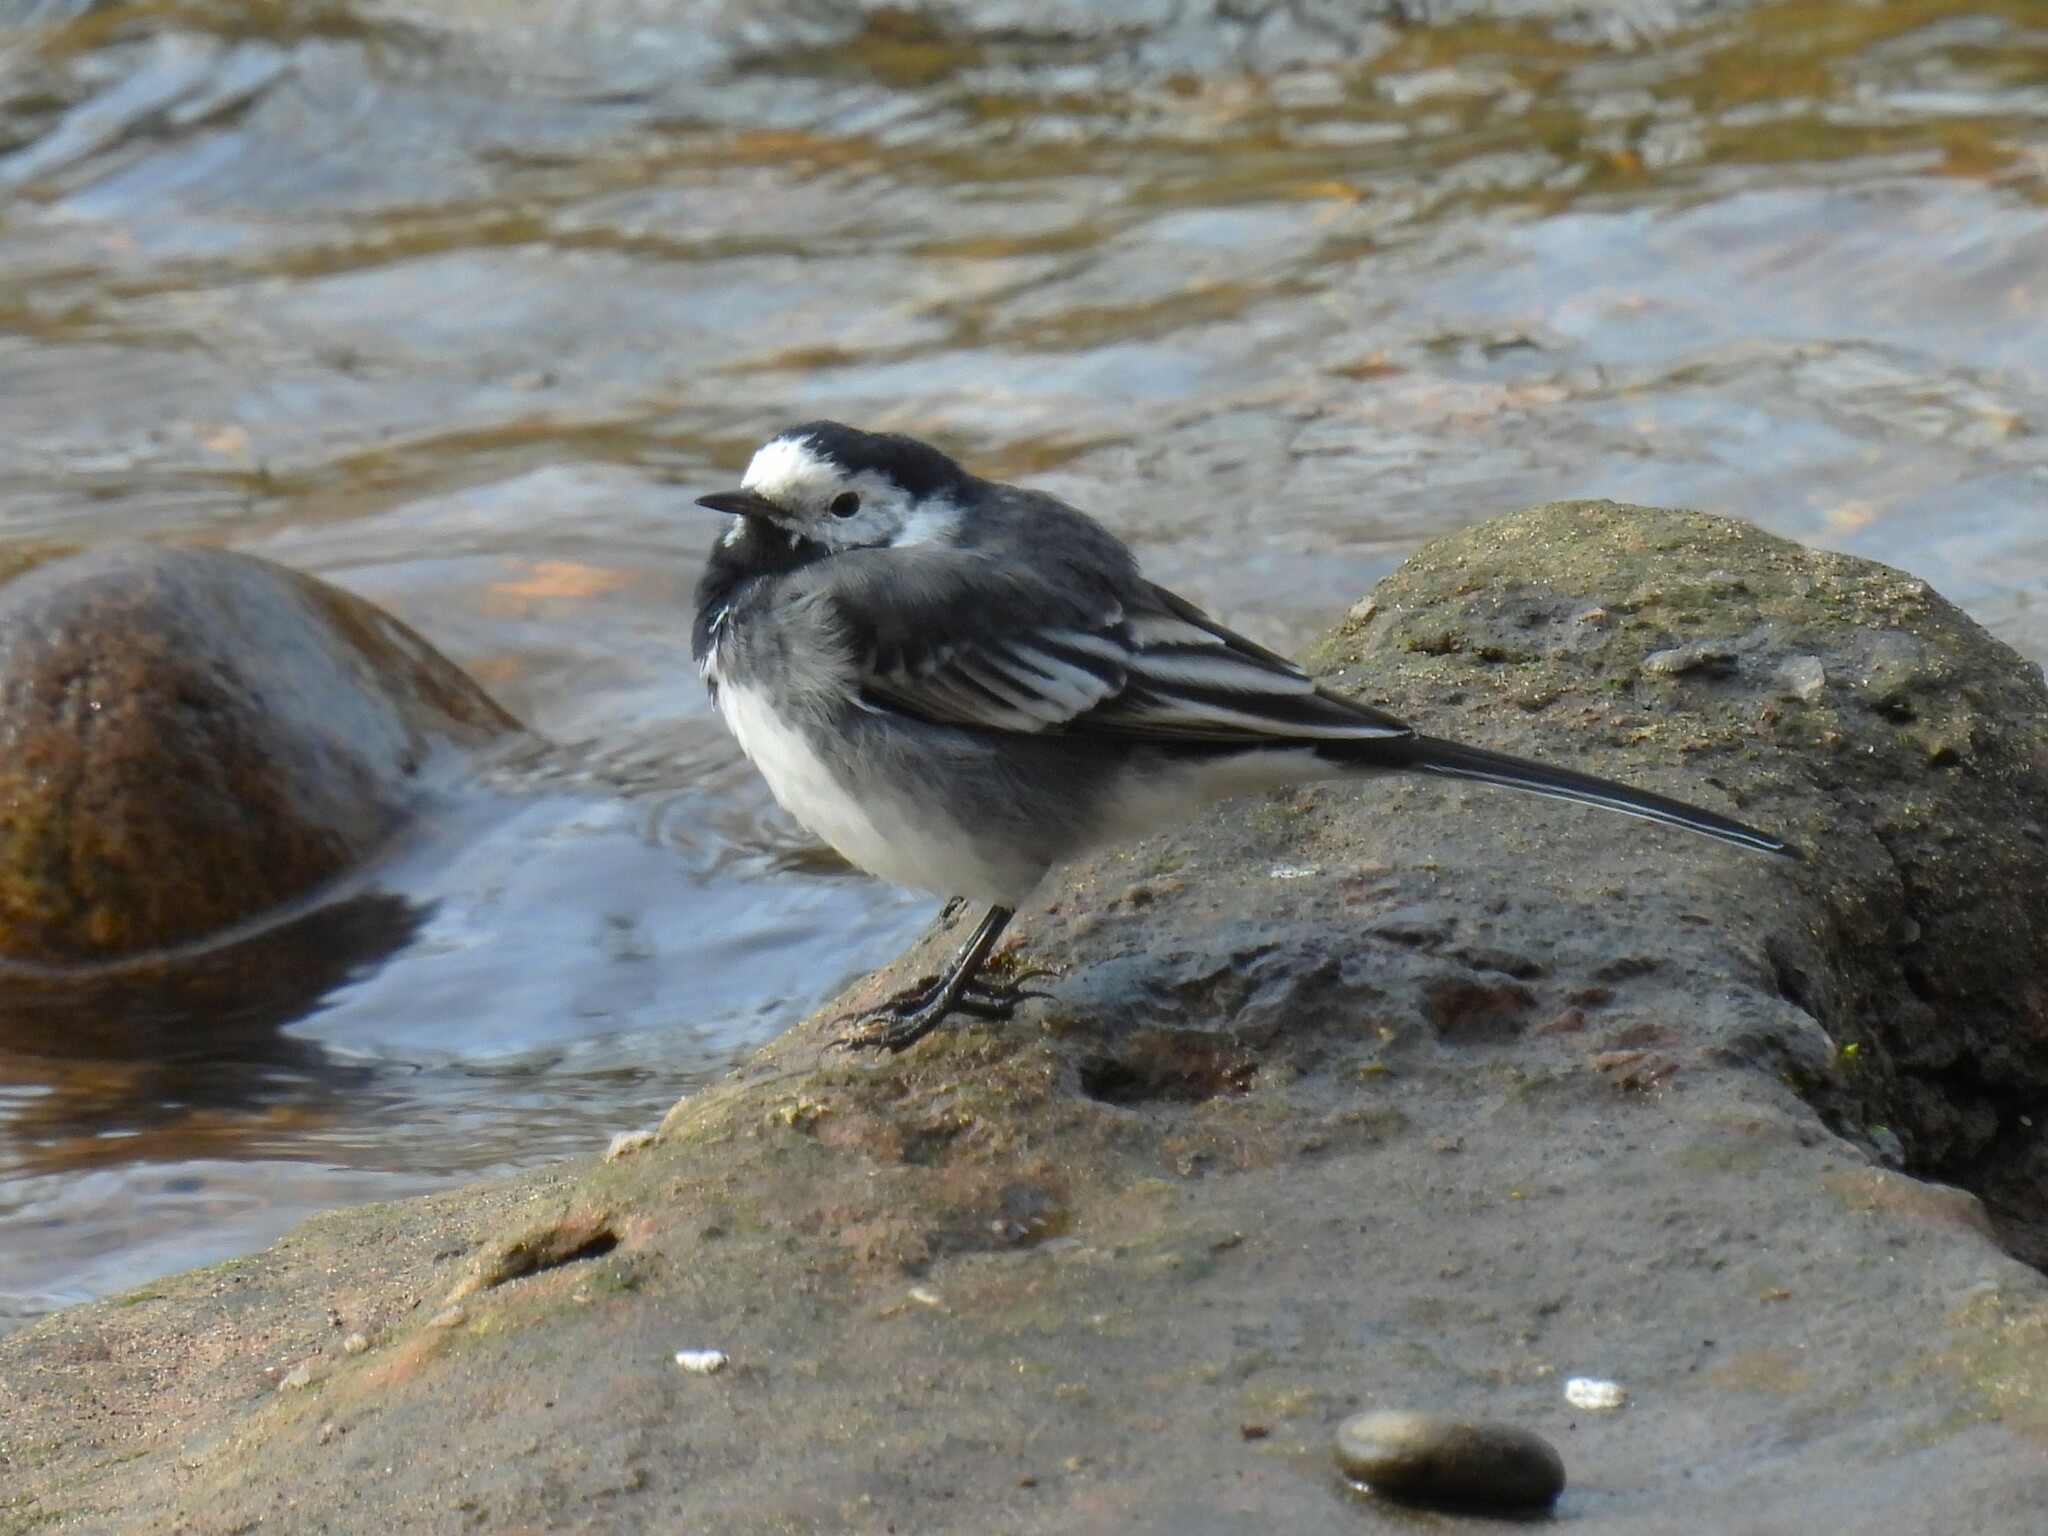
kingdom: Animalia
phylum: Chordata
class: Aves
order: Passeriformes
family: Motacillidae
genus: Motacilla
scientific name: Motacilla alba
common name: White wagtail
